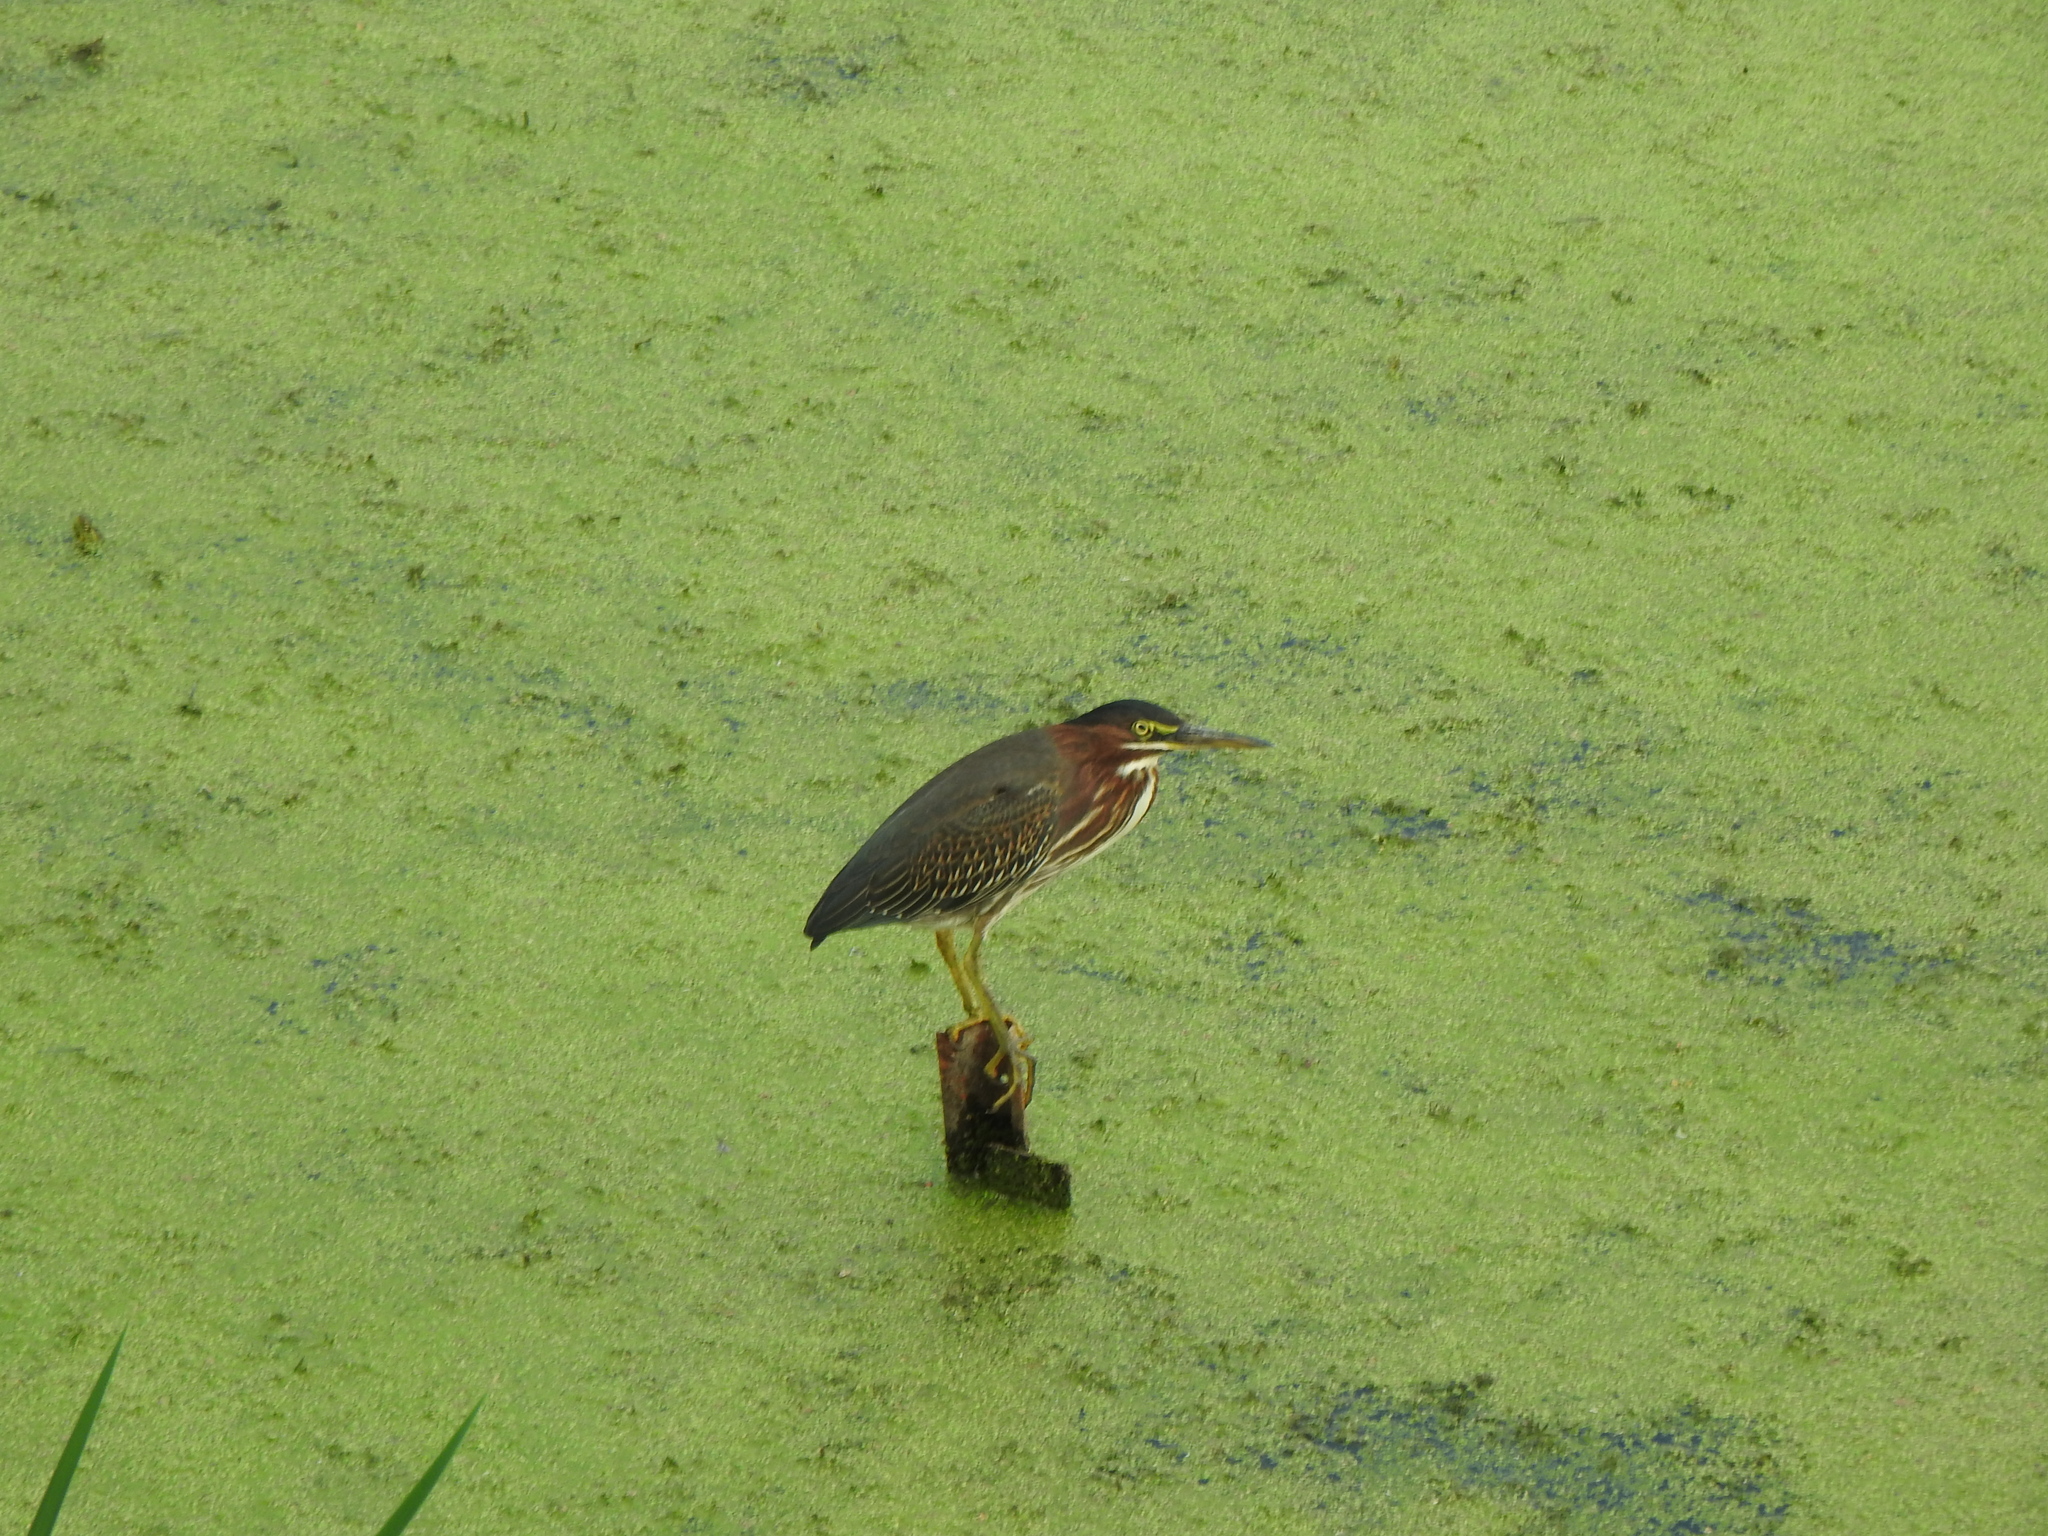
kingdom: Animalia
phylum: Chordata
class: Aves
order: Pelecaniformes
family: Ardeidae
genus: Butorides
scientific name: Butorides virescens
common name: Green heron
